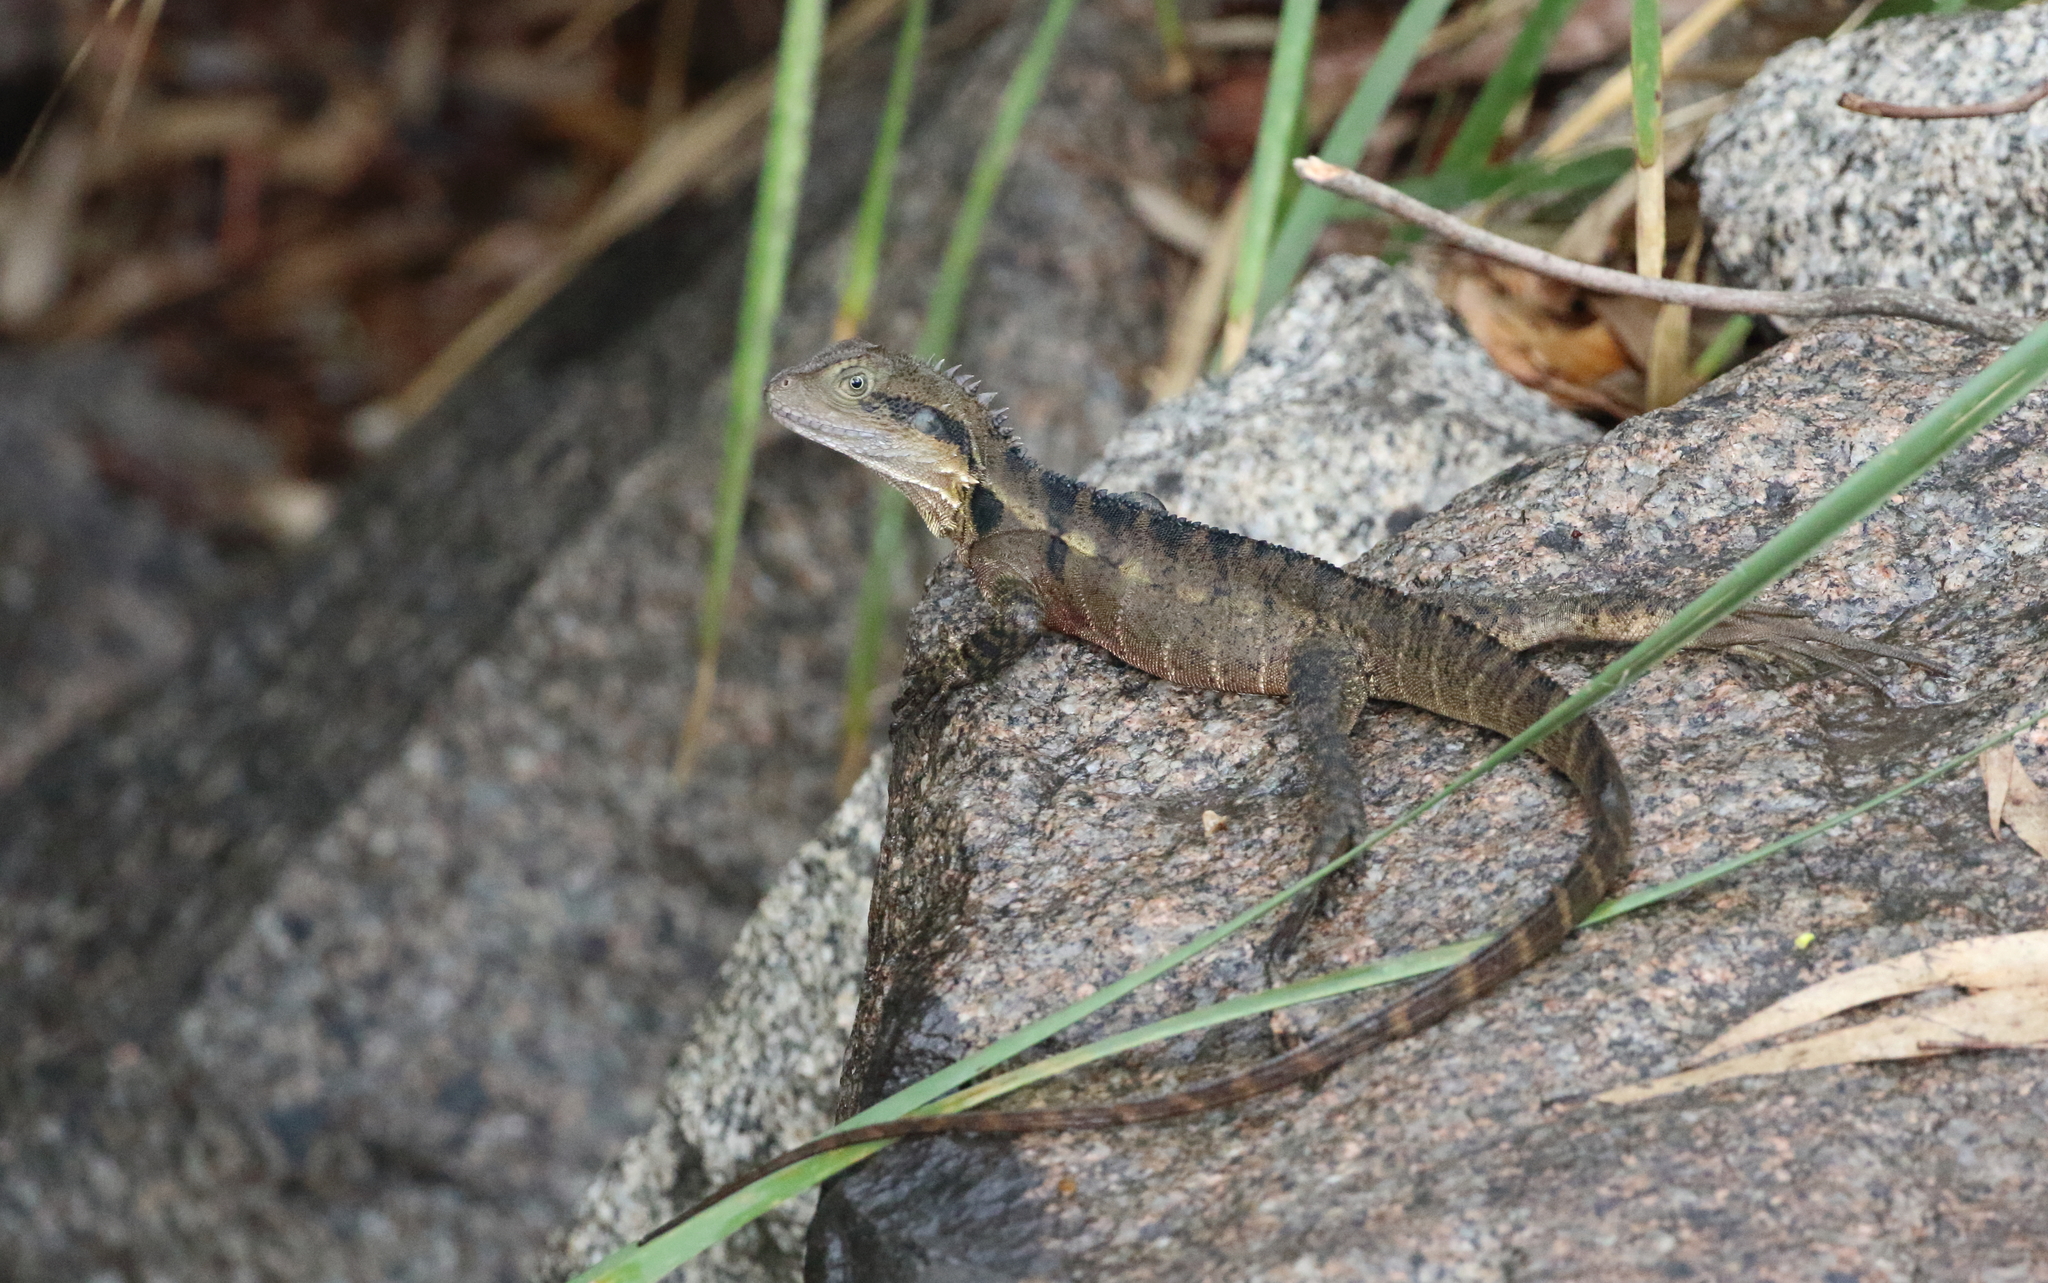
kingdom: Animalia
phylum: Chordata
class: Squamata
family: Agamidae
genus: Intellagama
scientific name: Intellagama lesueurii
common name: Eastern water dragon
